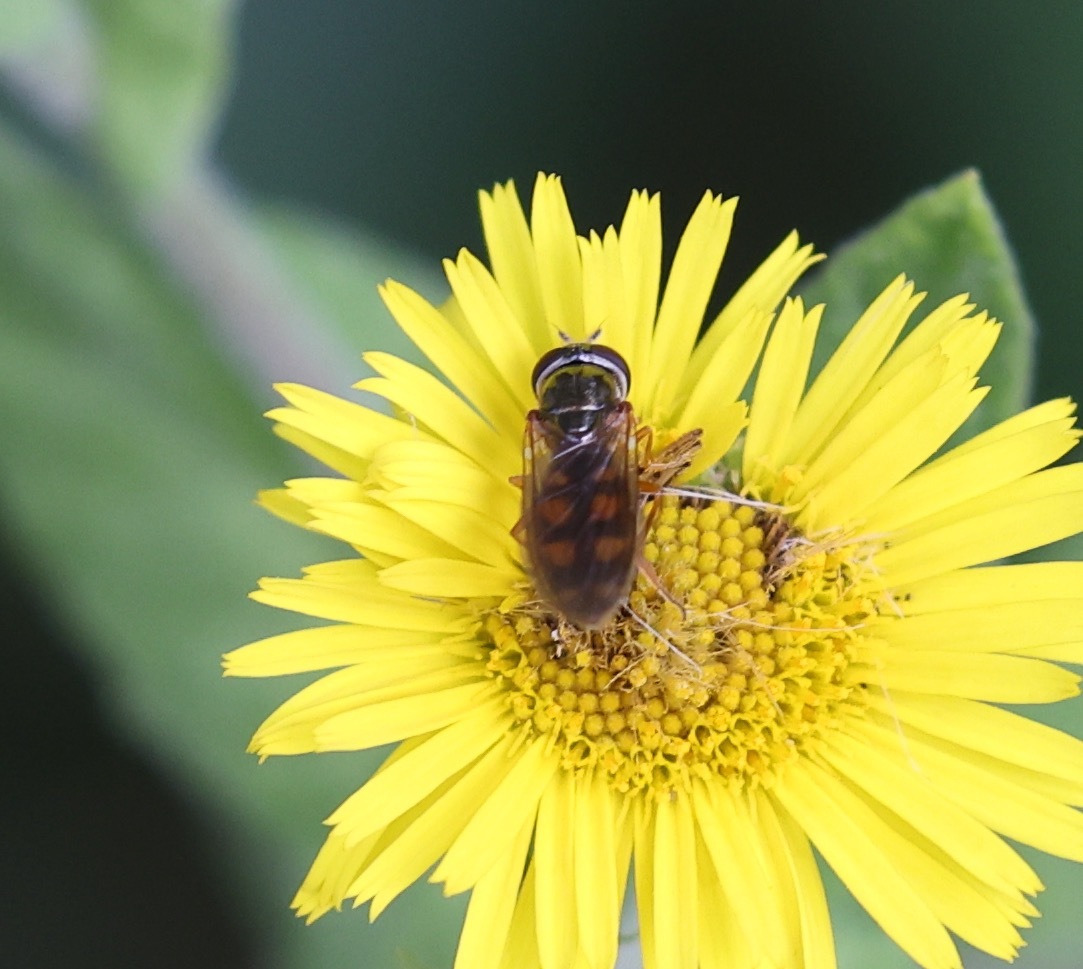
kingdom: Animalia
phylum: Arthropoda
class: Insecta
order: Diptera
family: Syrphidae
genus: Melanostoma
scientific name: Melanostoma
